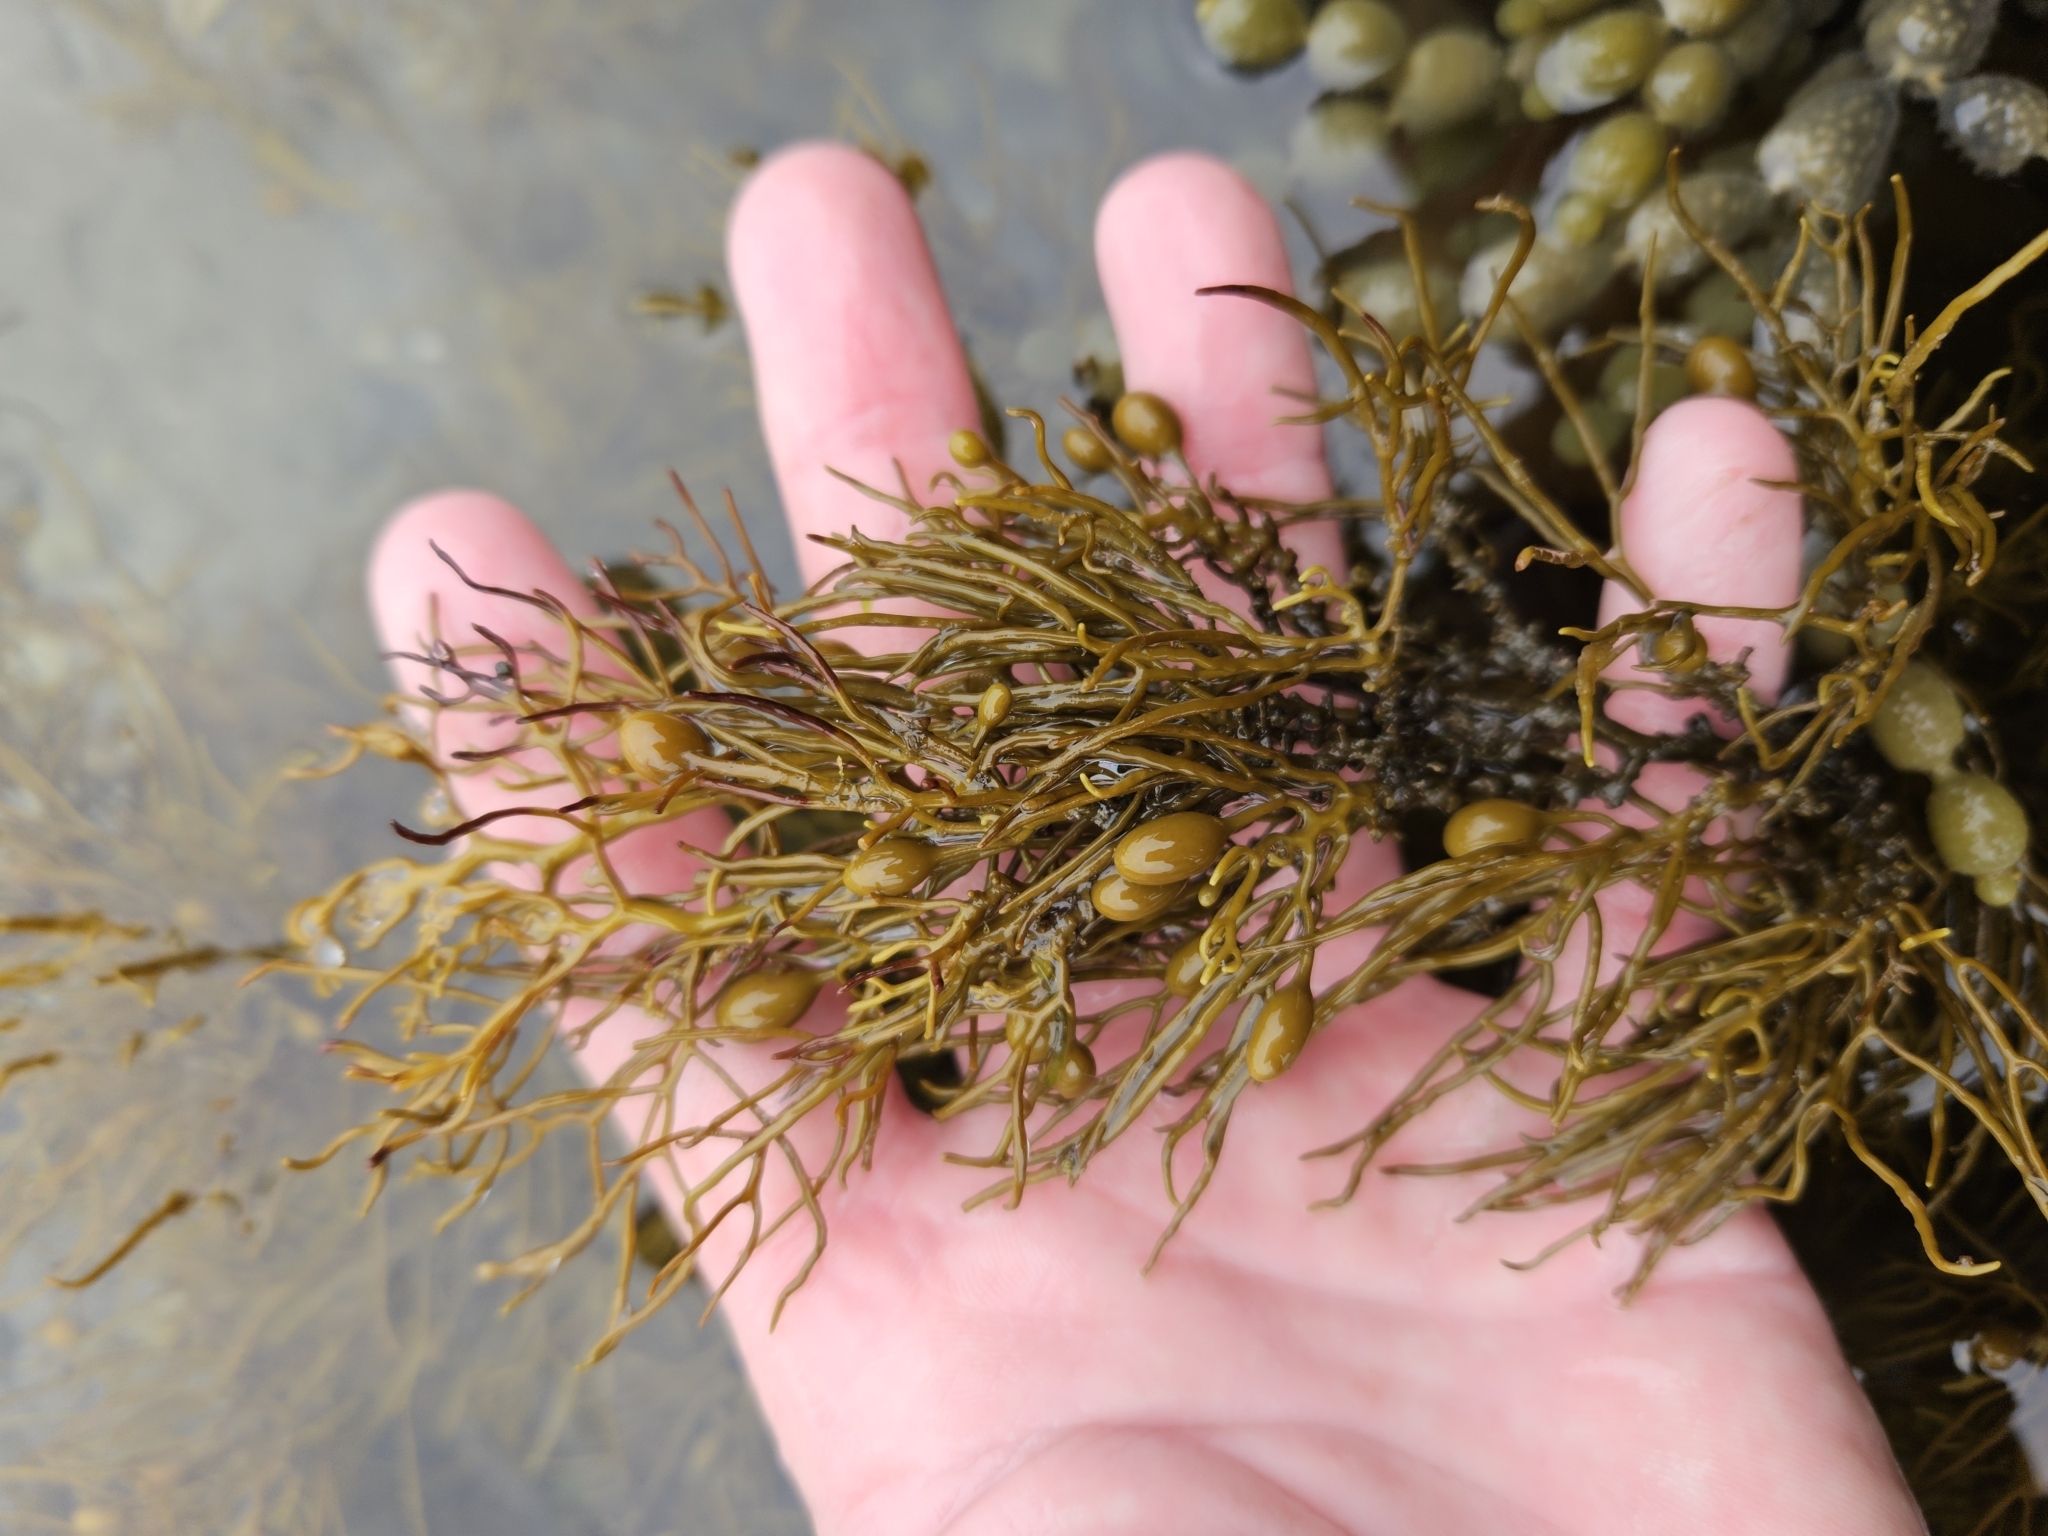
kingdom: Chromista
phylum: Ochrophyta
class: Phaeophyceae
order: Fucales
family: Sargassaceae
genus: Cystophora
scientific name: Cystophora retroflexa
